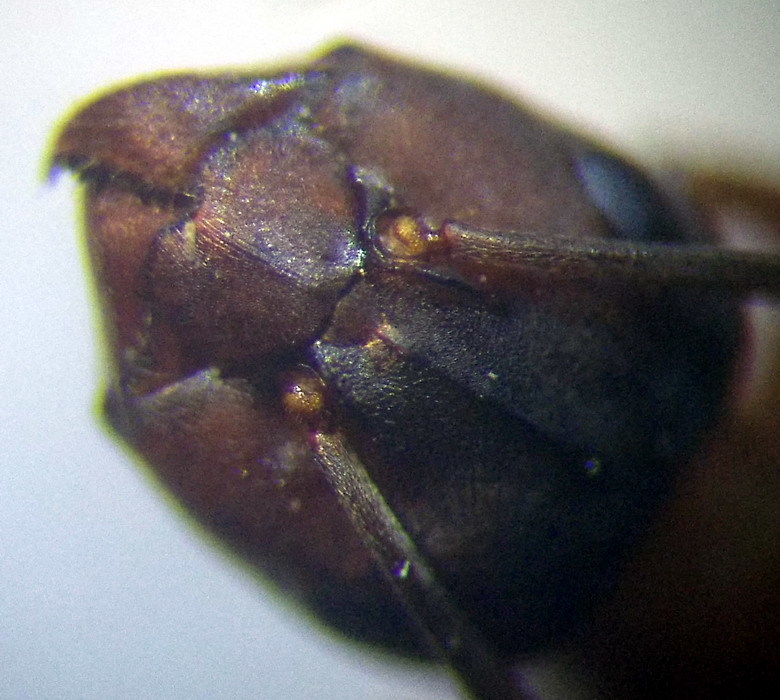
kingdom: Animalia
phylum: Arthropoda
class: Insecta
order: Hymenoptera
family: Formicidae
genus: Formica
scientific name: Formica sanguinea
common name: Blood-red ant
